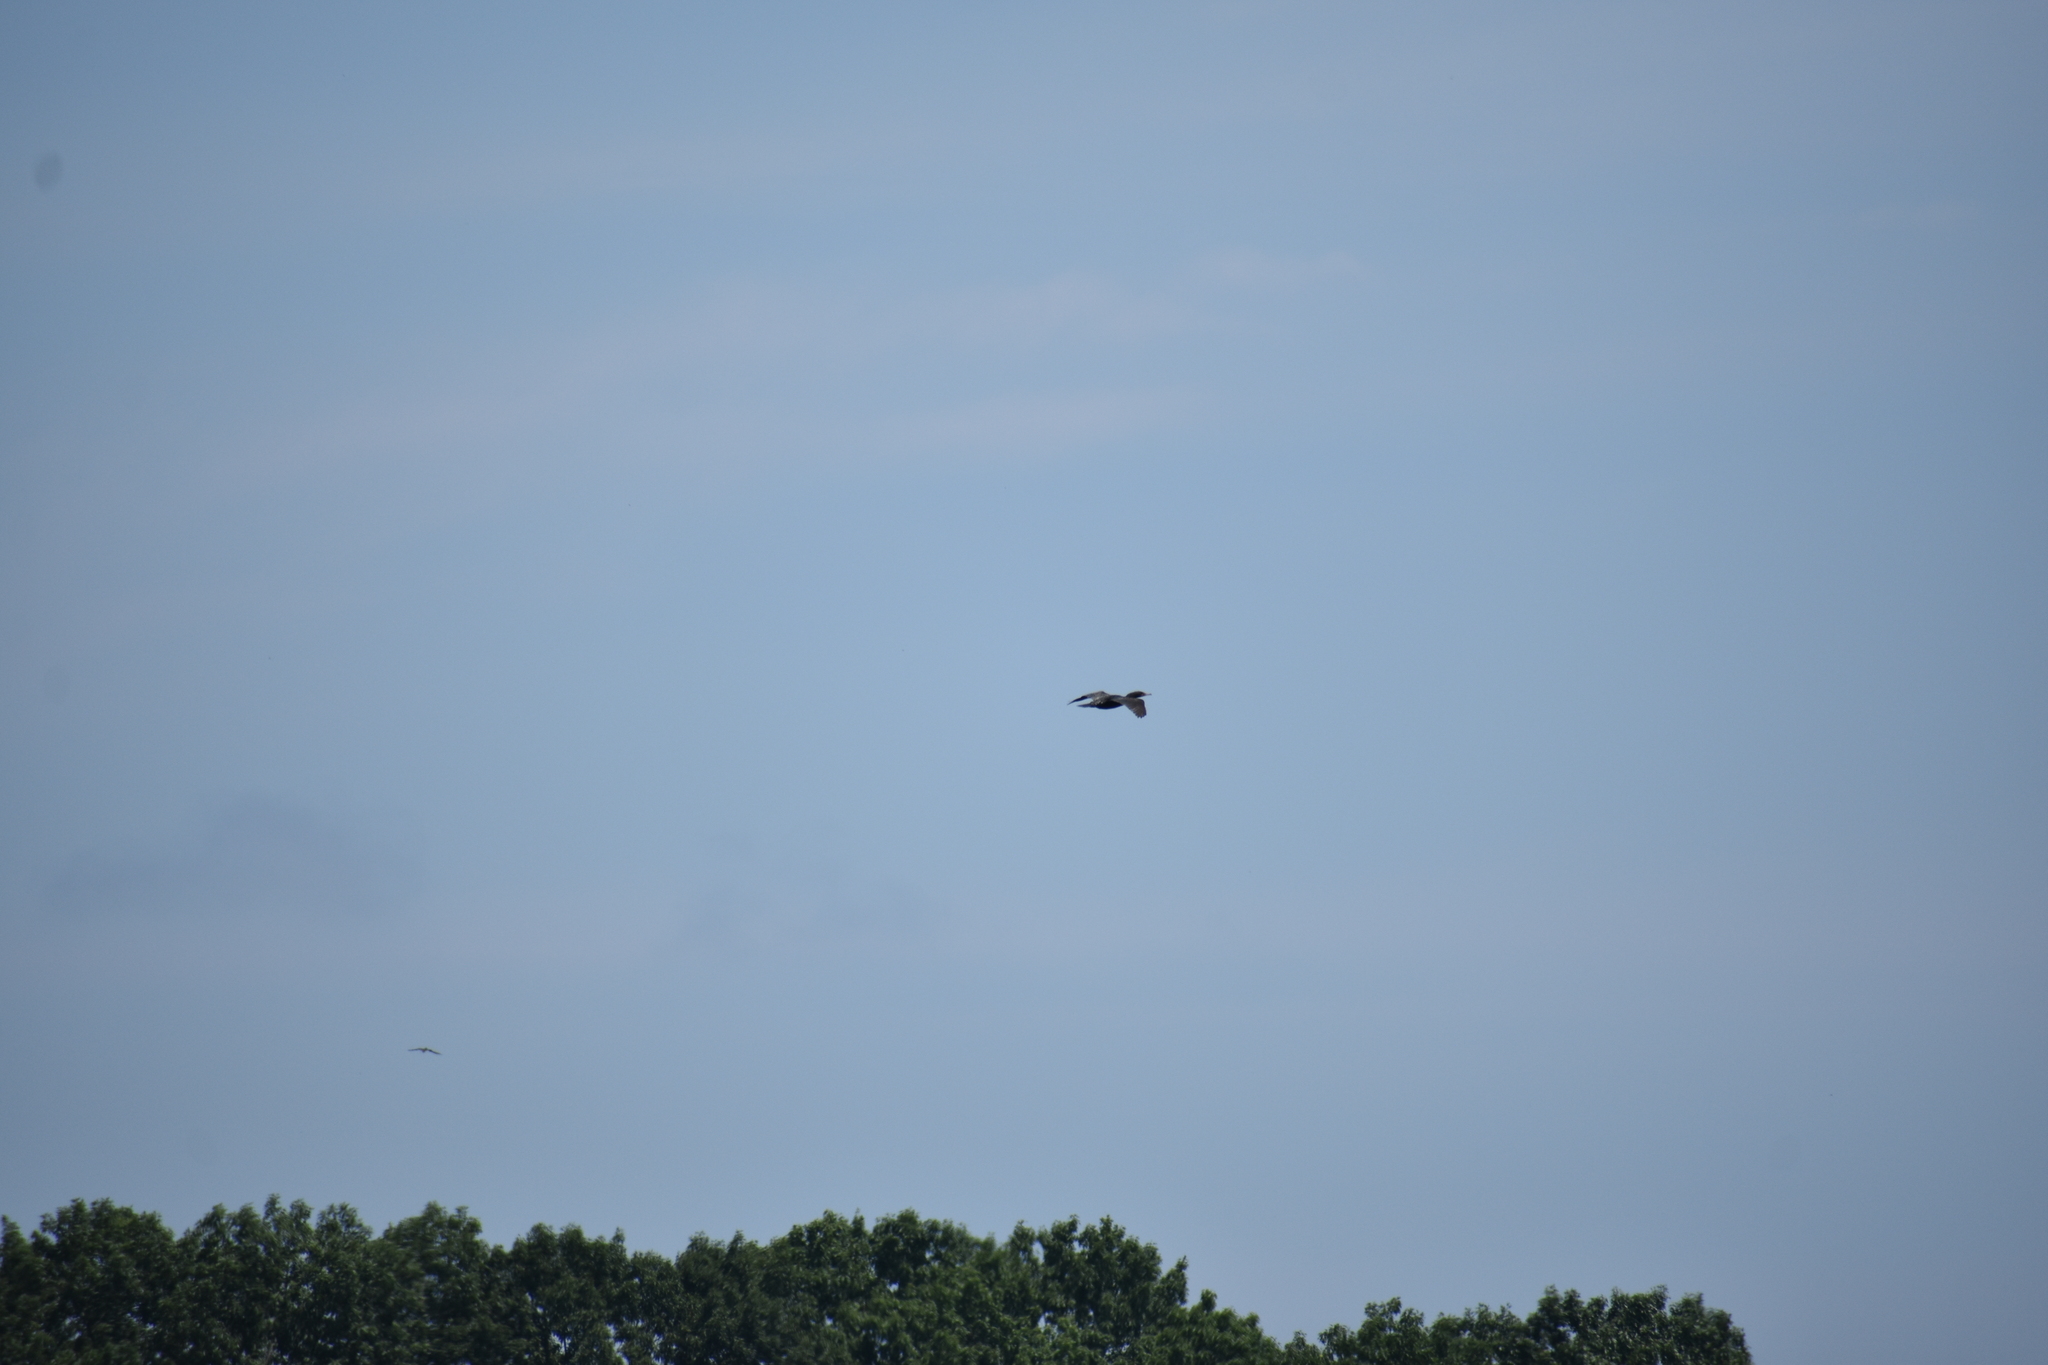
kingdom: Animalia
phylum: Chordata
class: Aves
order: Suliformes
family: Phalacrocoracidae
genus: Phalacrocorax
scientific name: Phalacrocorax auritus
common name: Double-crested cormorant
